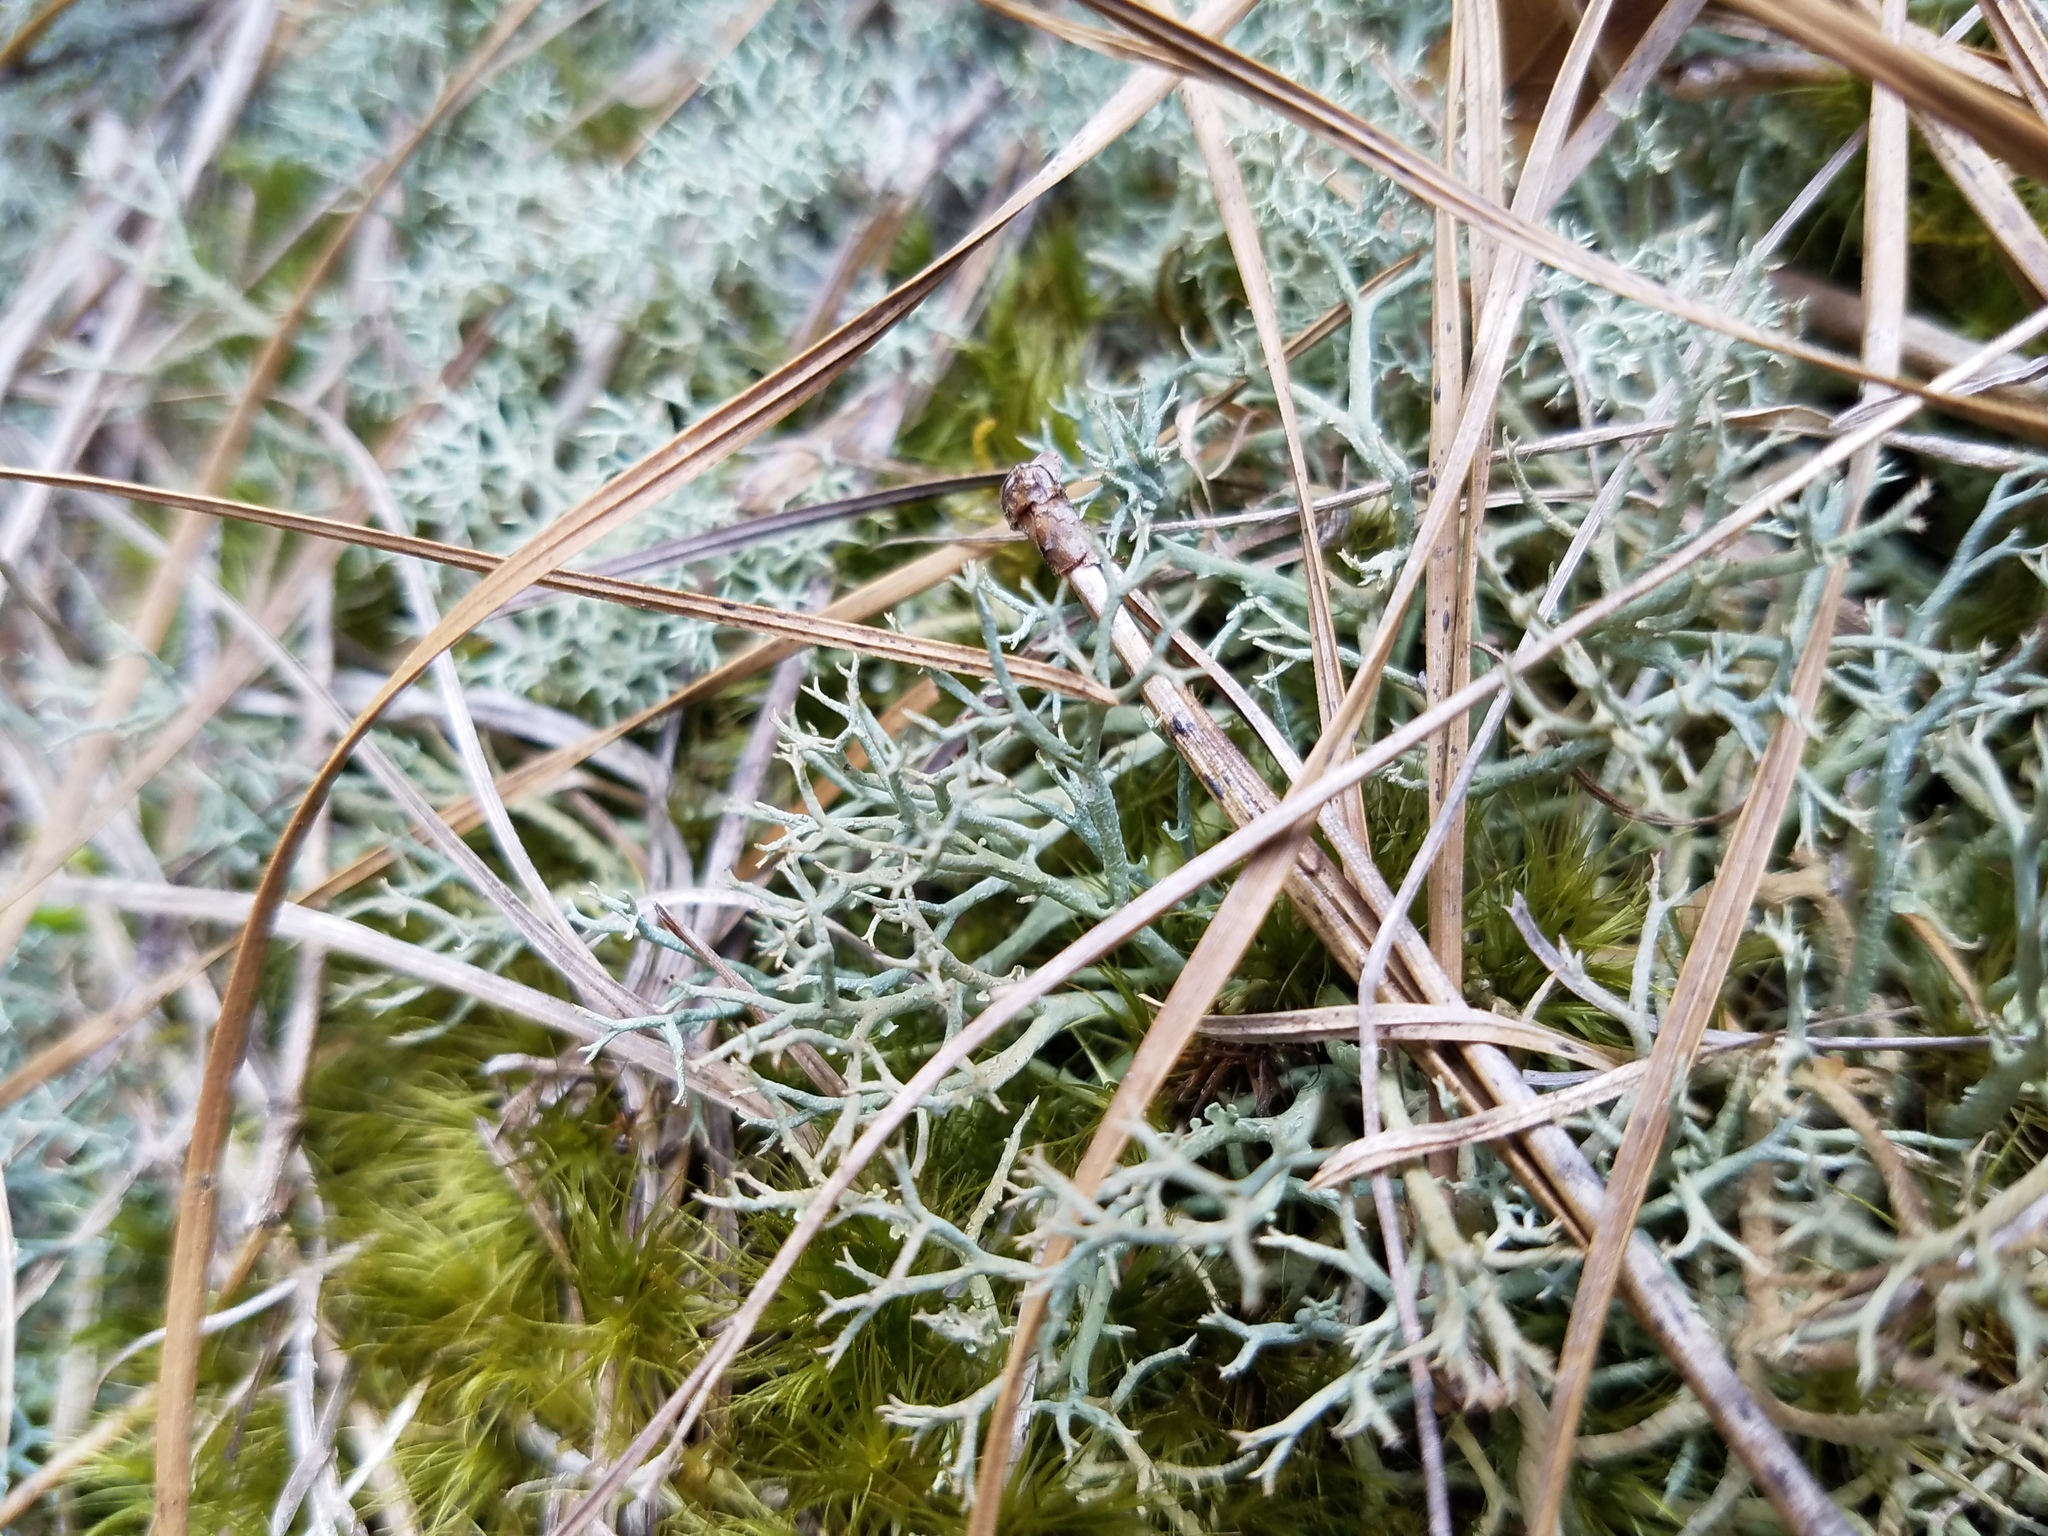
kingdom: Fungi
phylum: Ascomycota
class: Lecanoromycetes
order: Lecanorales
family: Cladoniaceae
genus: Cladonia
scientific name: Cladonia furcata
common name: Many-forked cladonia
